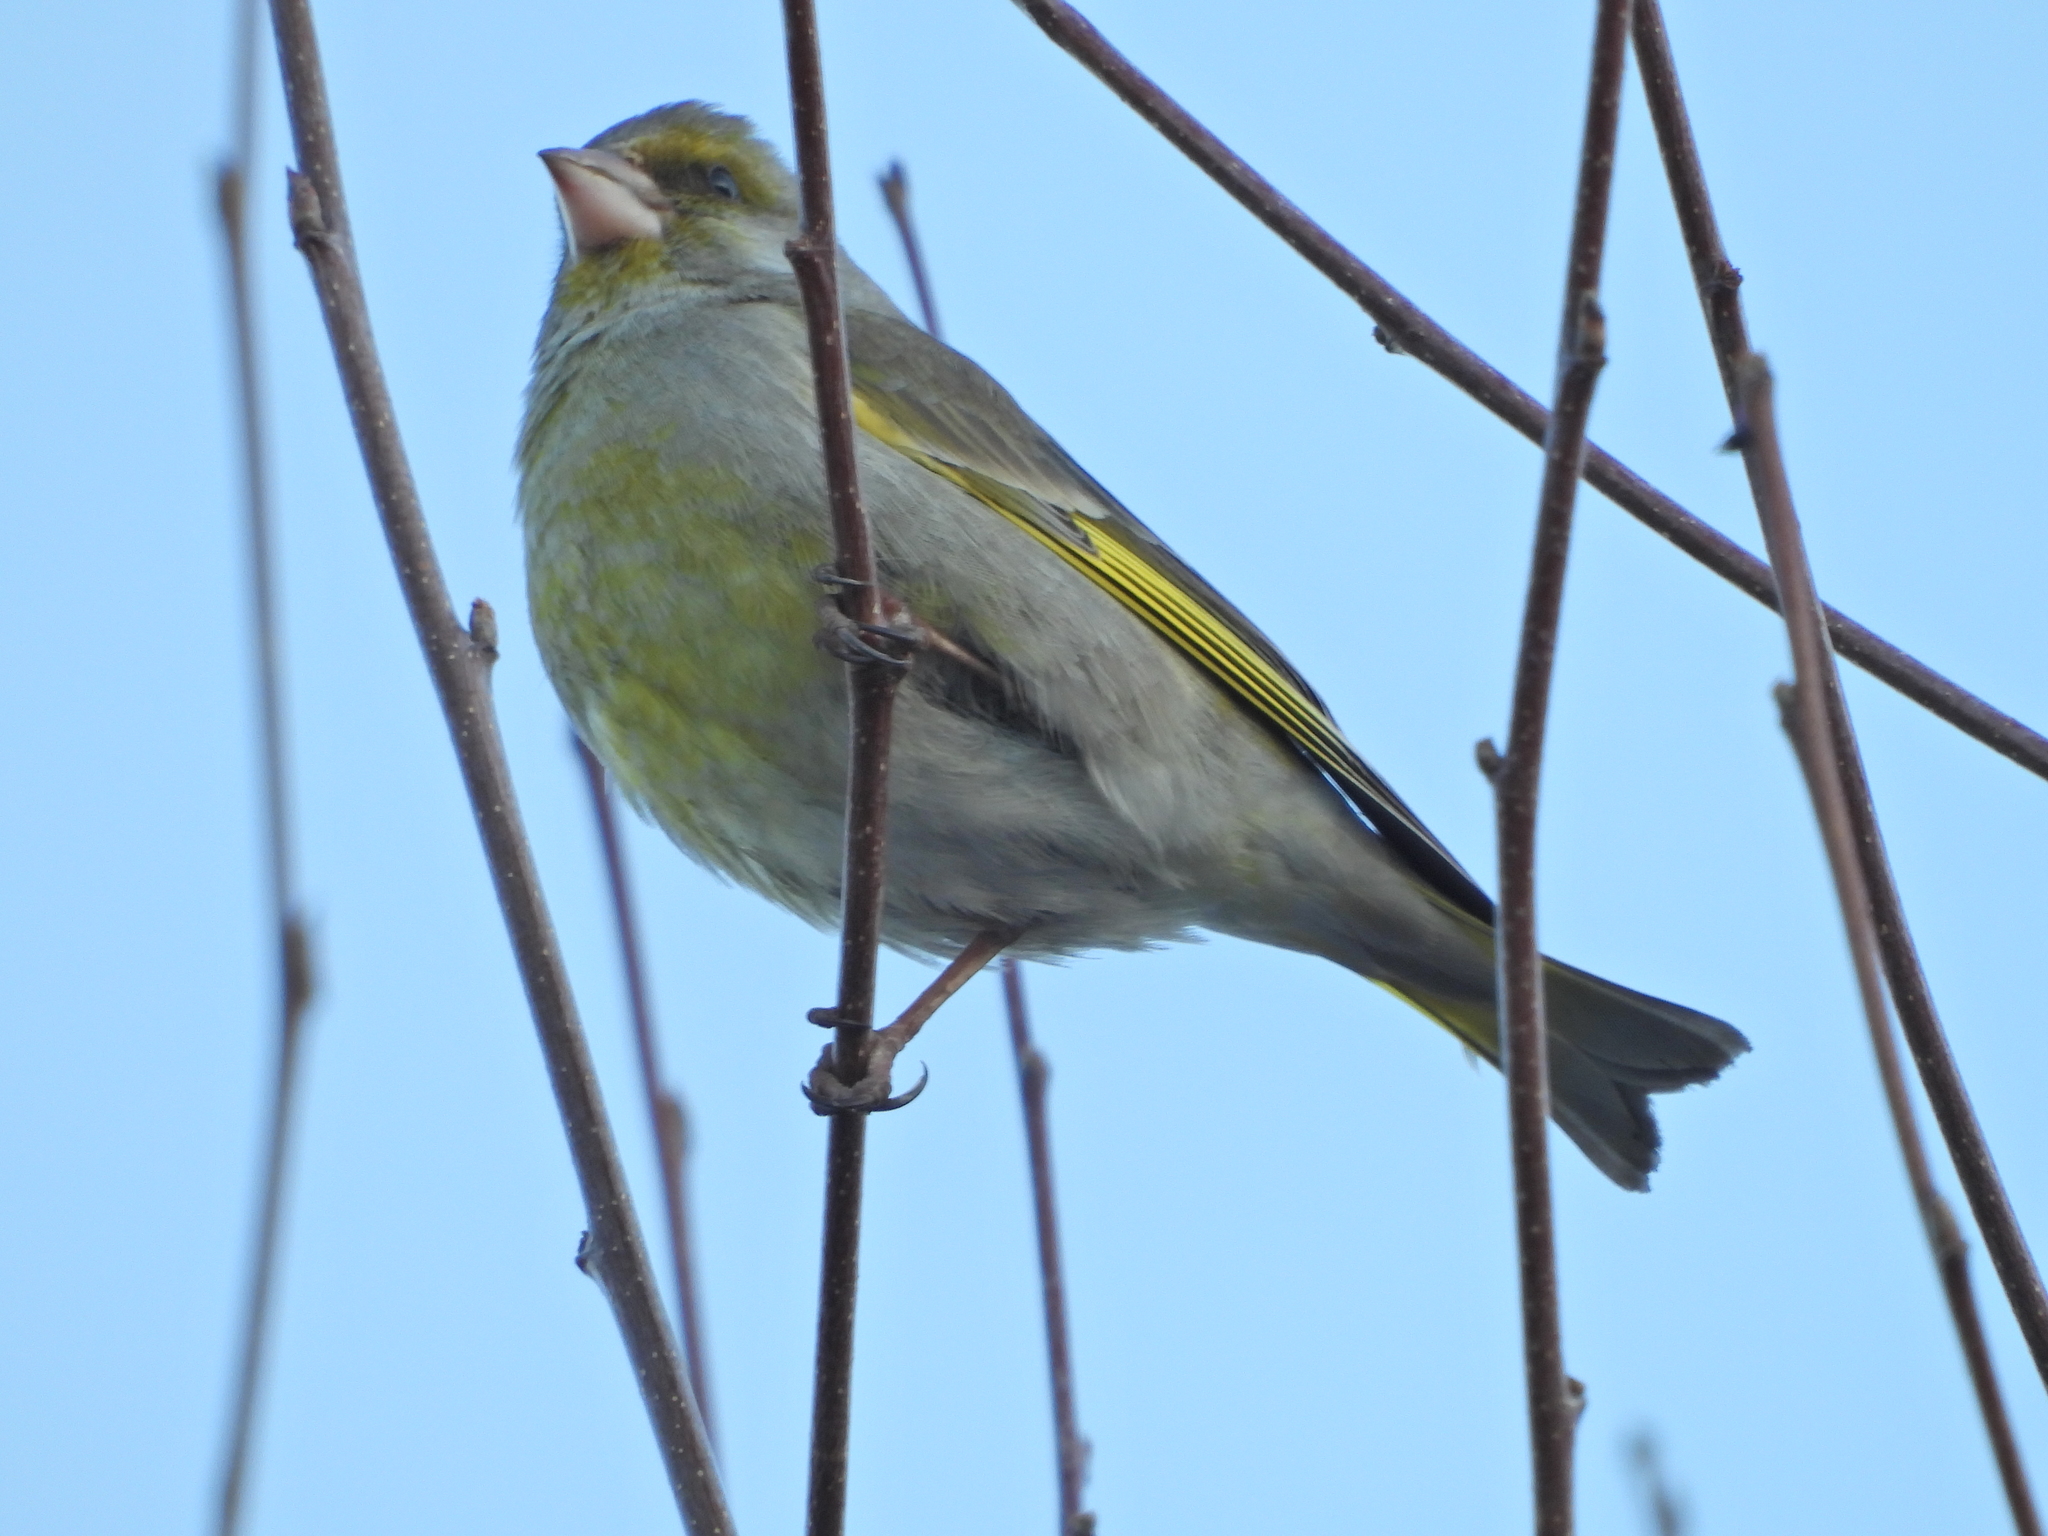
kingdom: Plantae
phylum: Tracheophyta
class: Liliopsida
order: Poales
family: Poaceae
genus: Chloris
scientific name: Chloris chloris
